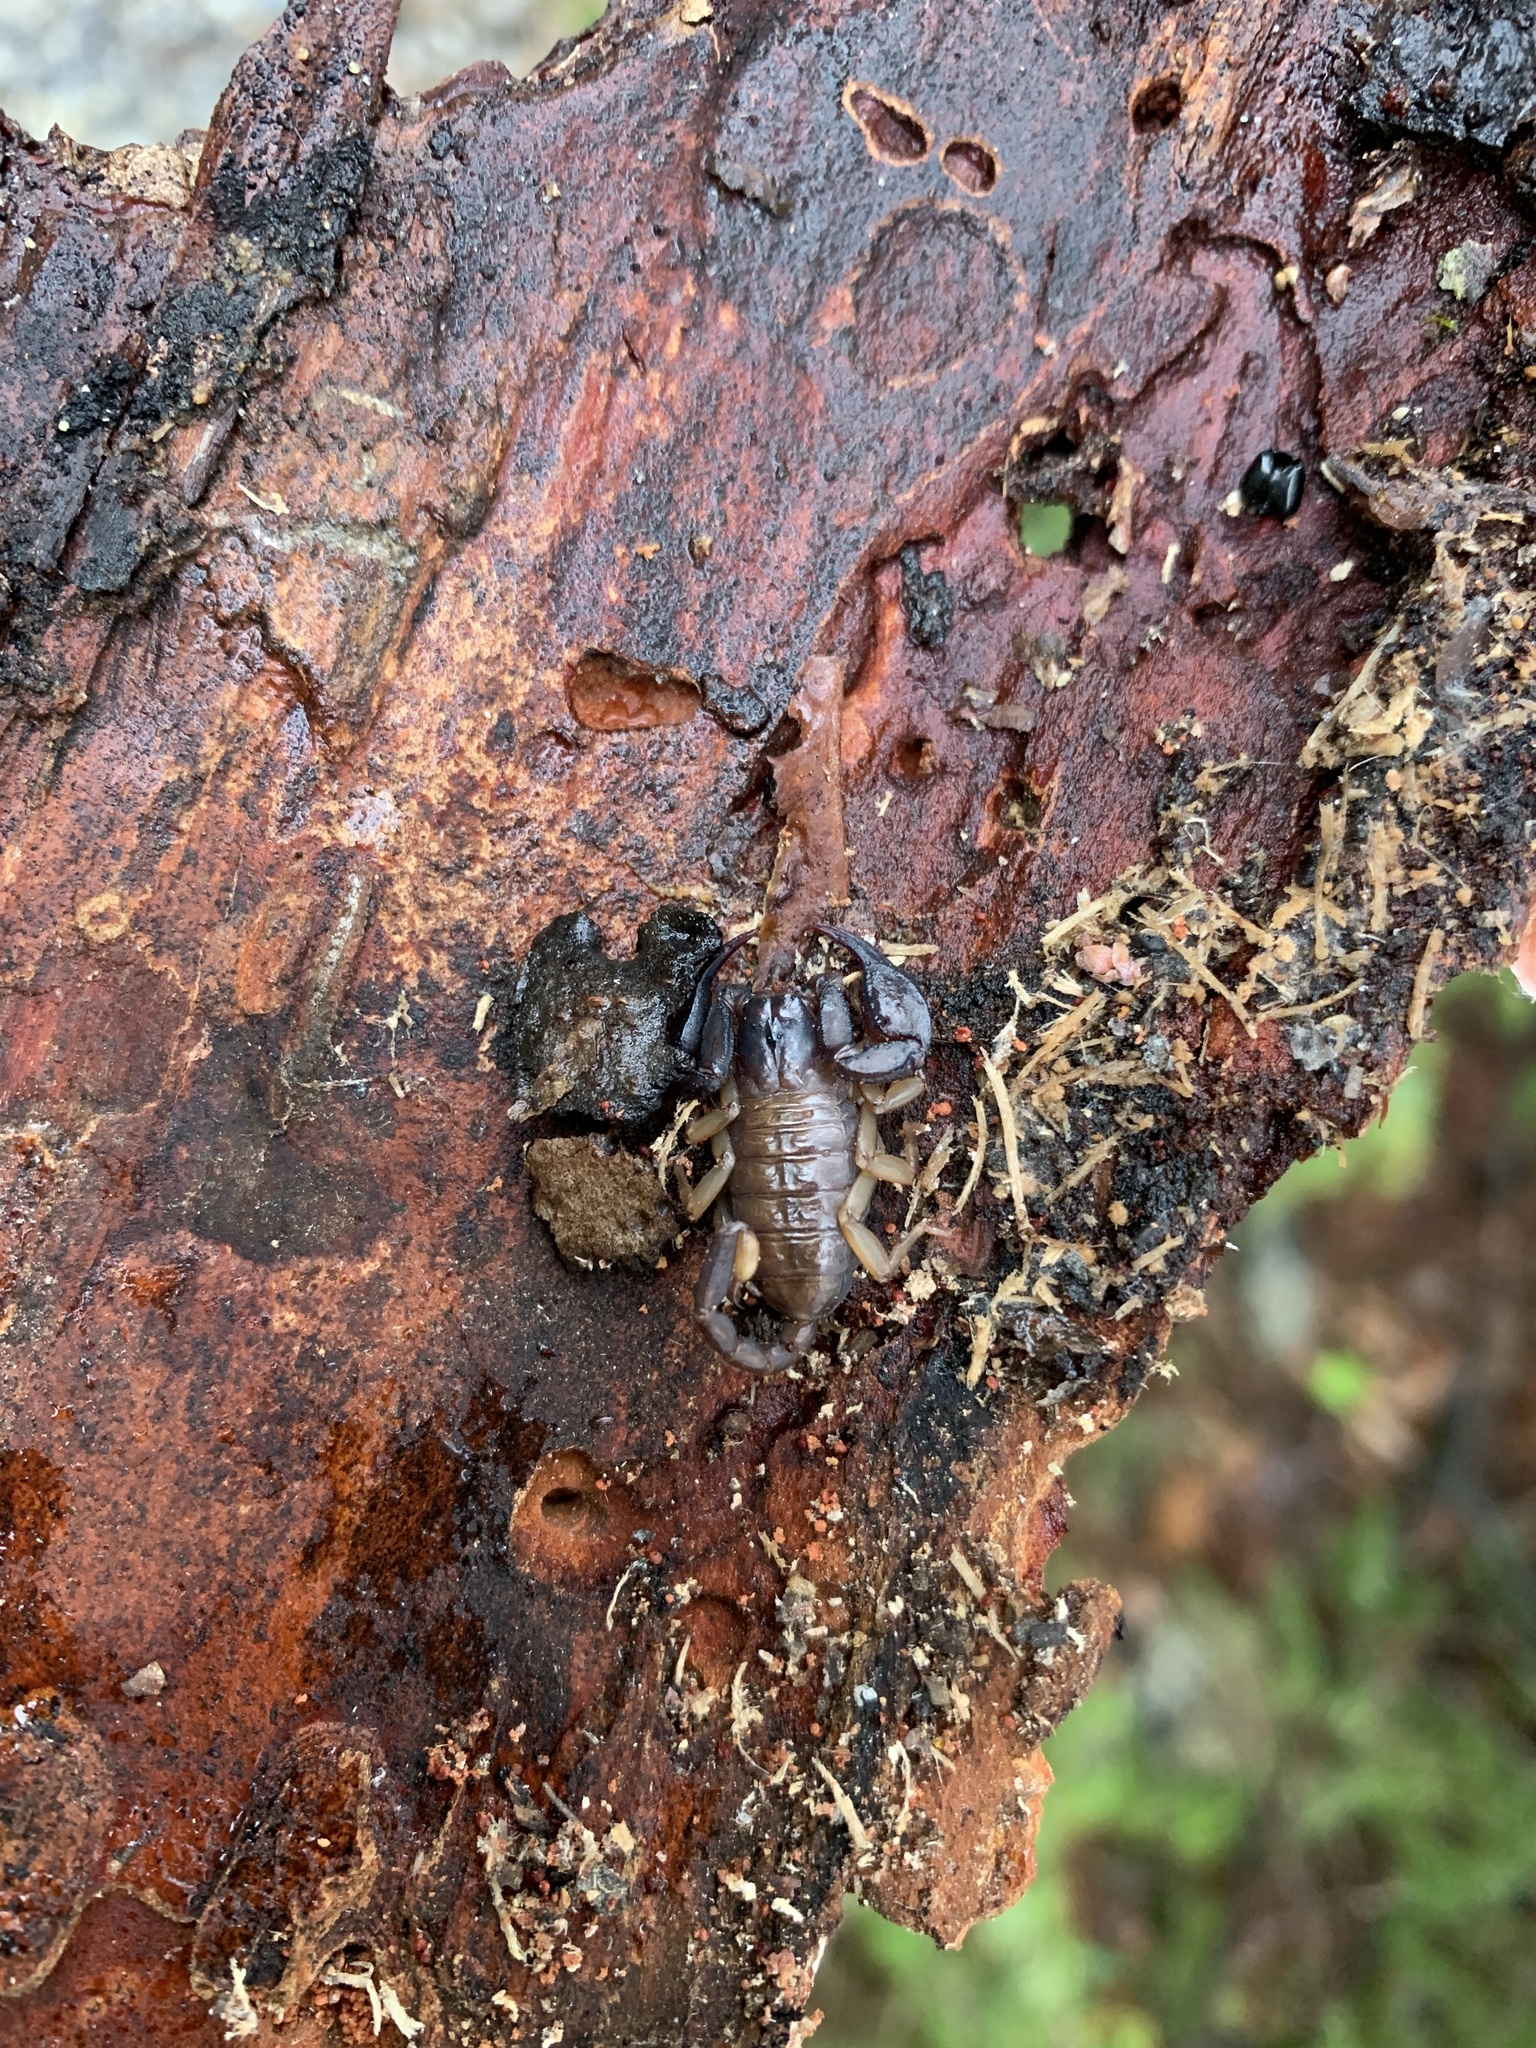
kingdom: Animalia
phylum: Arthropoda
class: Arachnida
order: Scorpiones
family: Euscorpiidae
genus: Euscorpius
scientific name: Euscorpius
